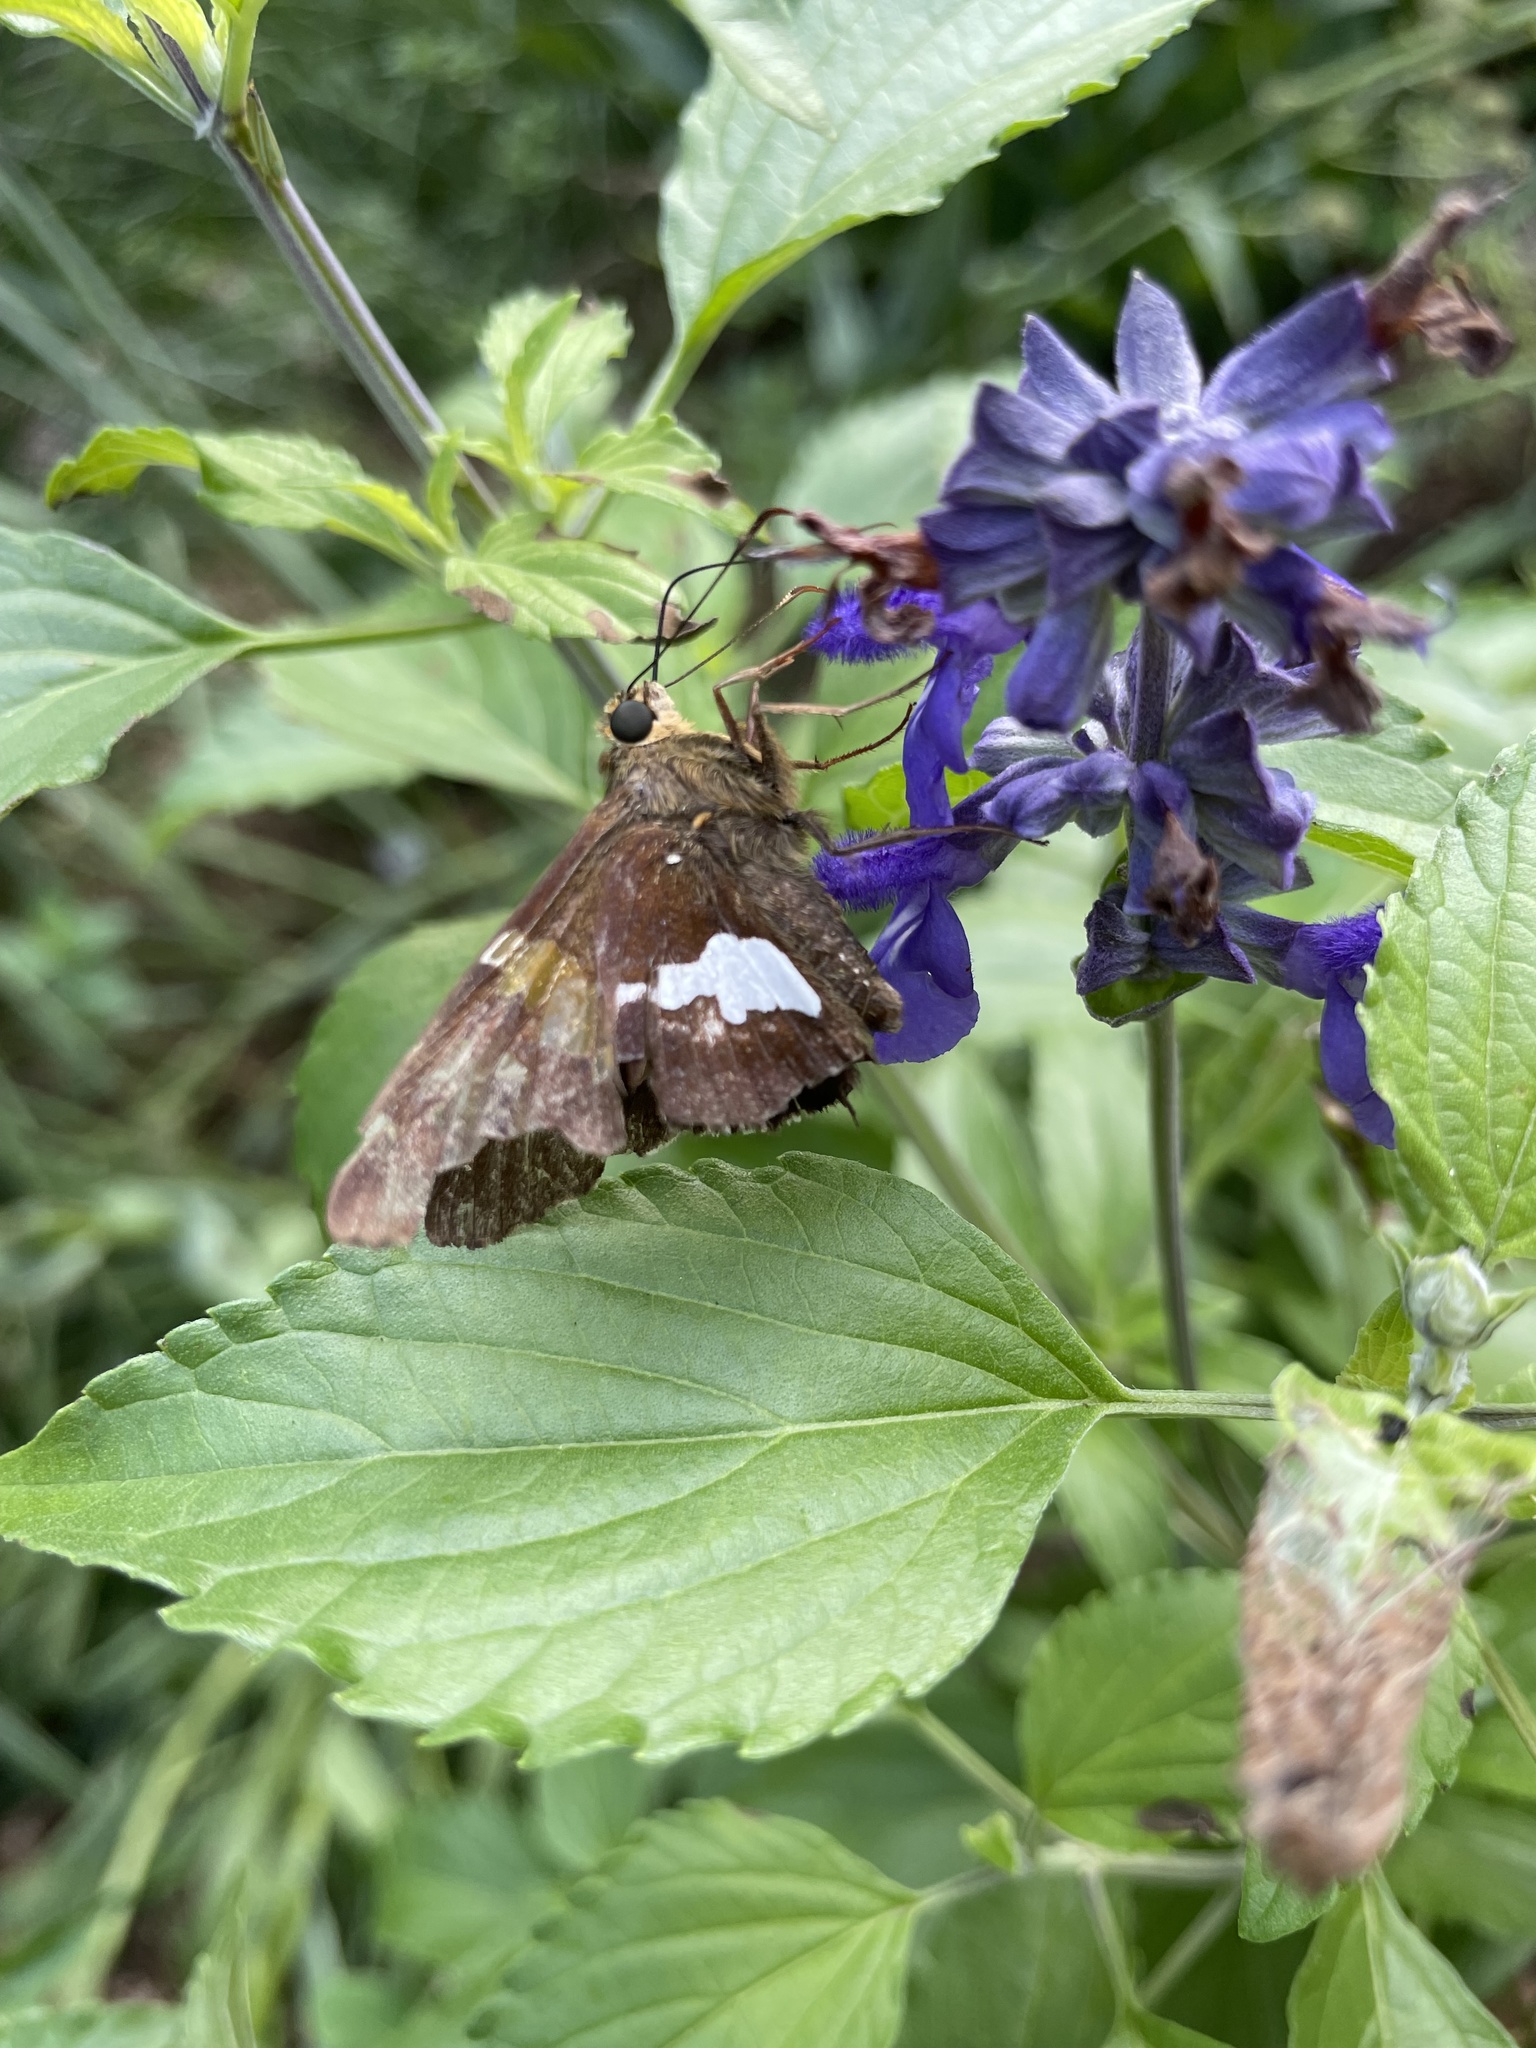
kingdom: Animalia
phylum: Arthropoda
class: Insecta
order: Lepidoptera
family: Hesperiidae
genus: Epargyreus
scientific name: Epargyreus clarus
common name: Silver-spotted skipper
